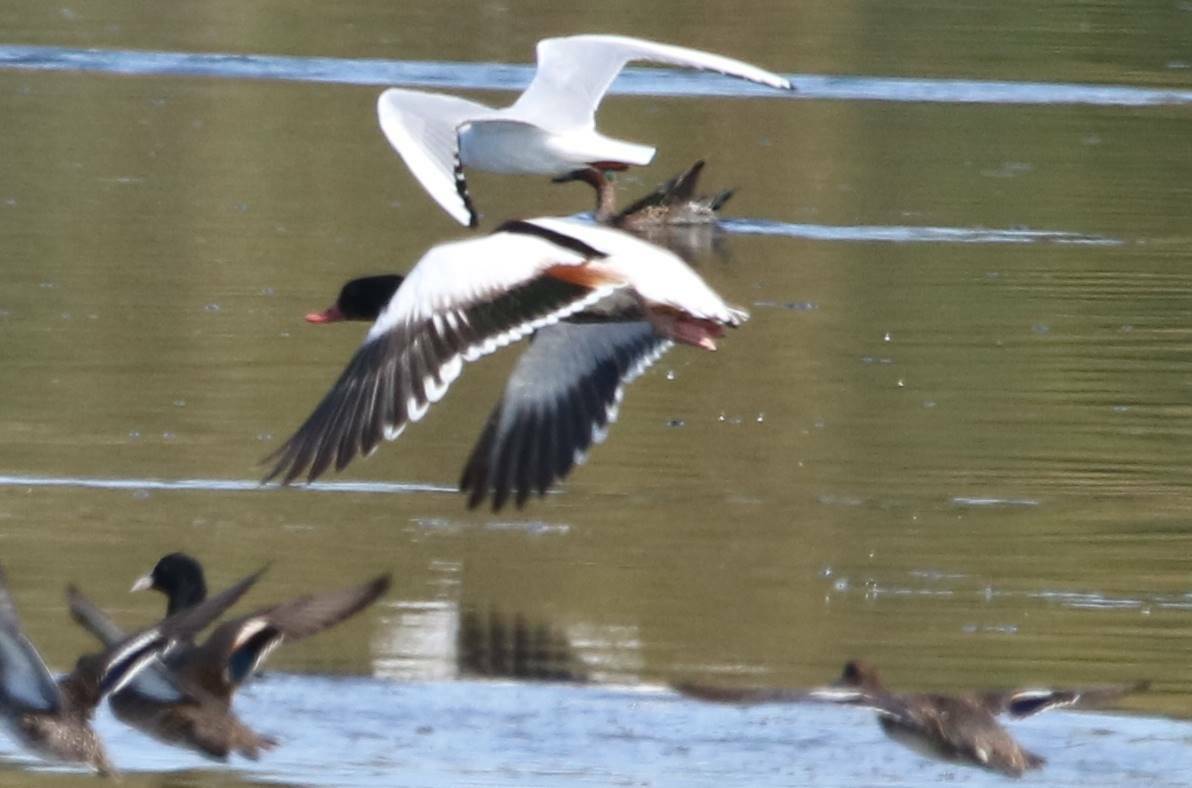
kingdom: Animalia
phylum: Chordata
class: Aves
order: Anseriformes
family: Anatidae
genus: Tadorna
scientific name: Tadorna tadorna
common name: Common shelduck
